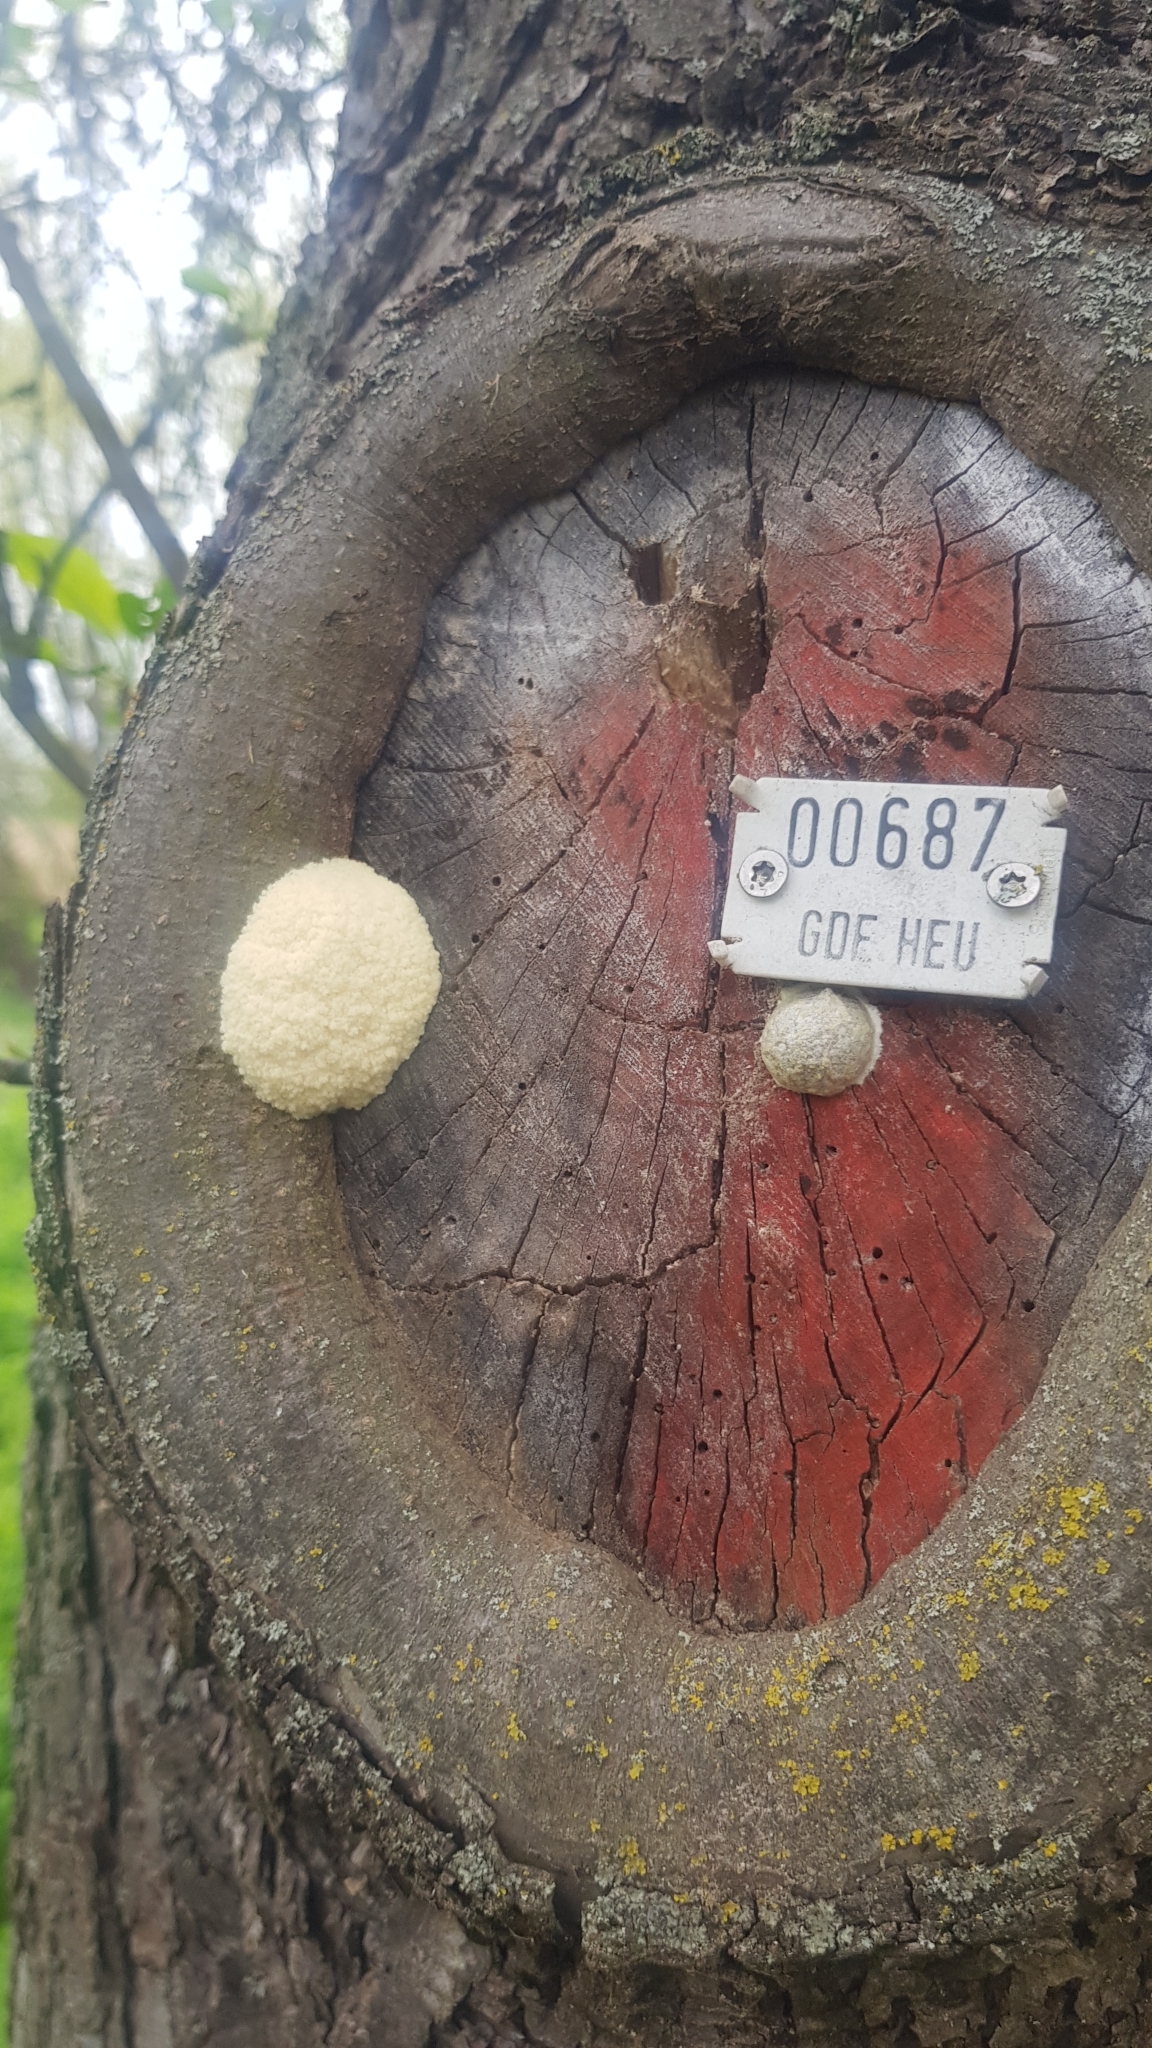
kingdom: Protozoa
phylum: Mycetozoa
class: Myxomycetes
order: Cribrariales
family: Tubiferaceae
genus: Reticularia
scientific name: Reticularia lycoperdon
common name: False puffball
